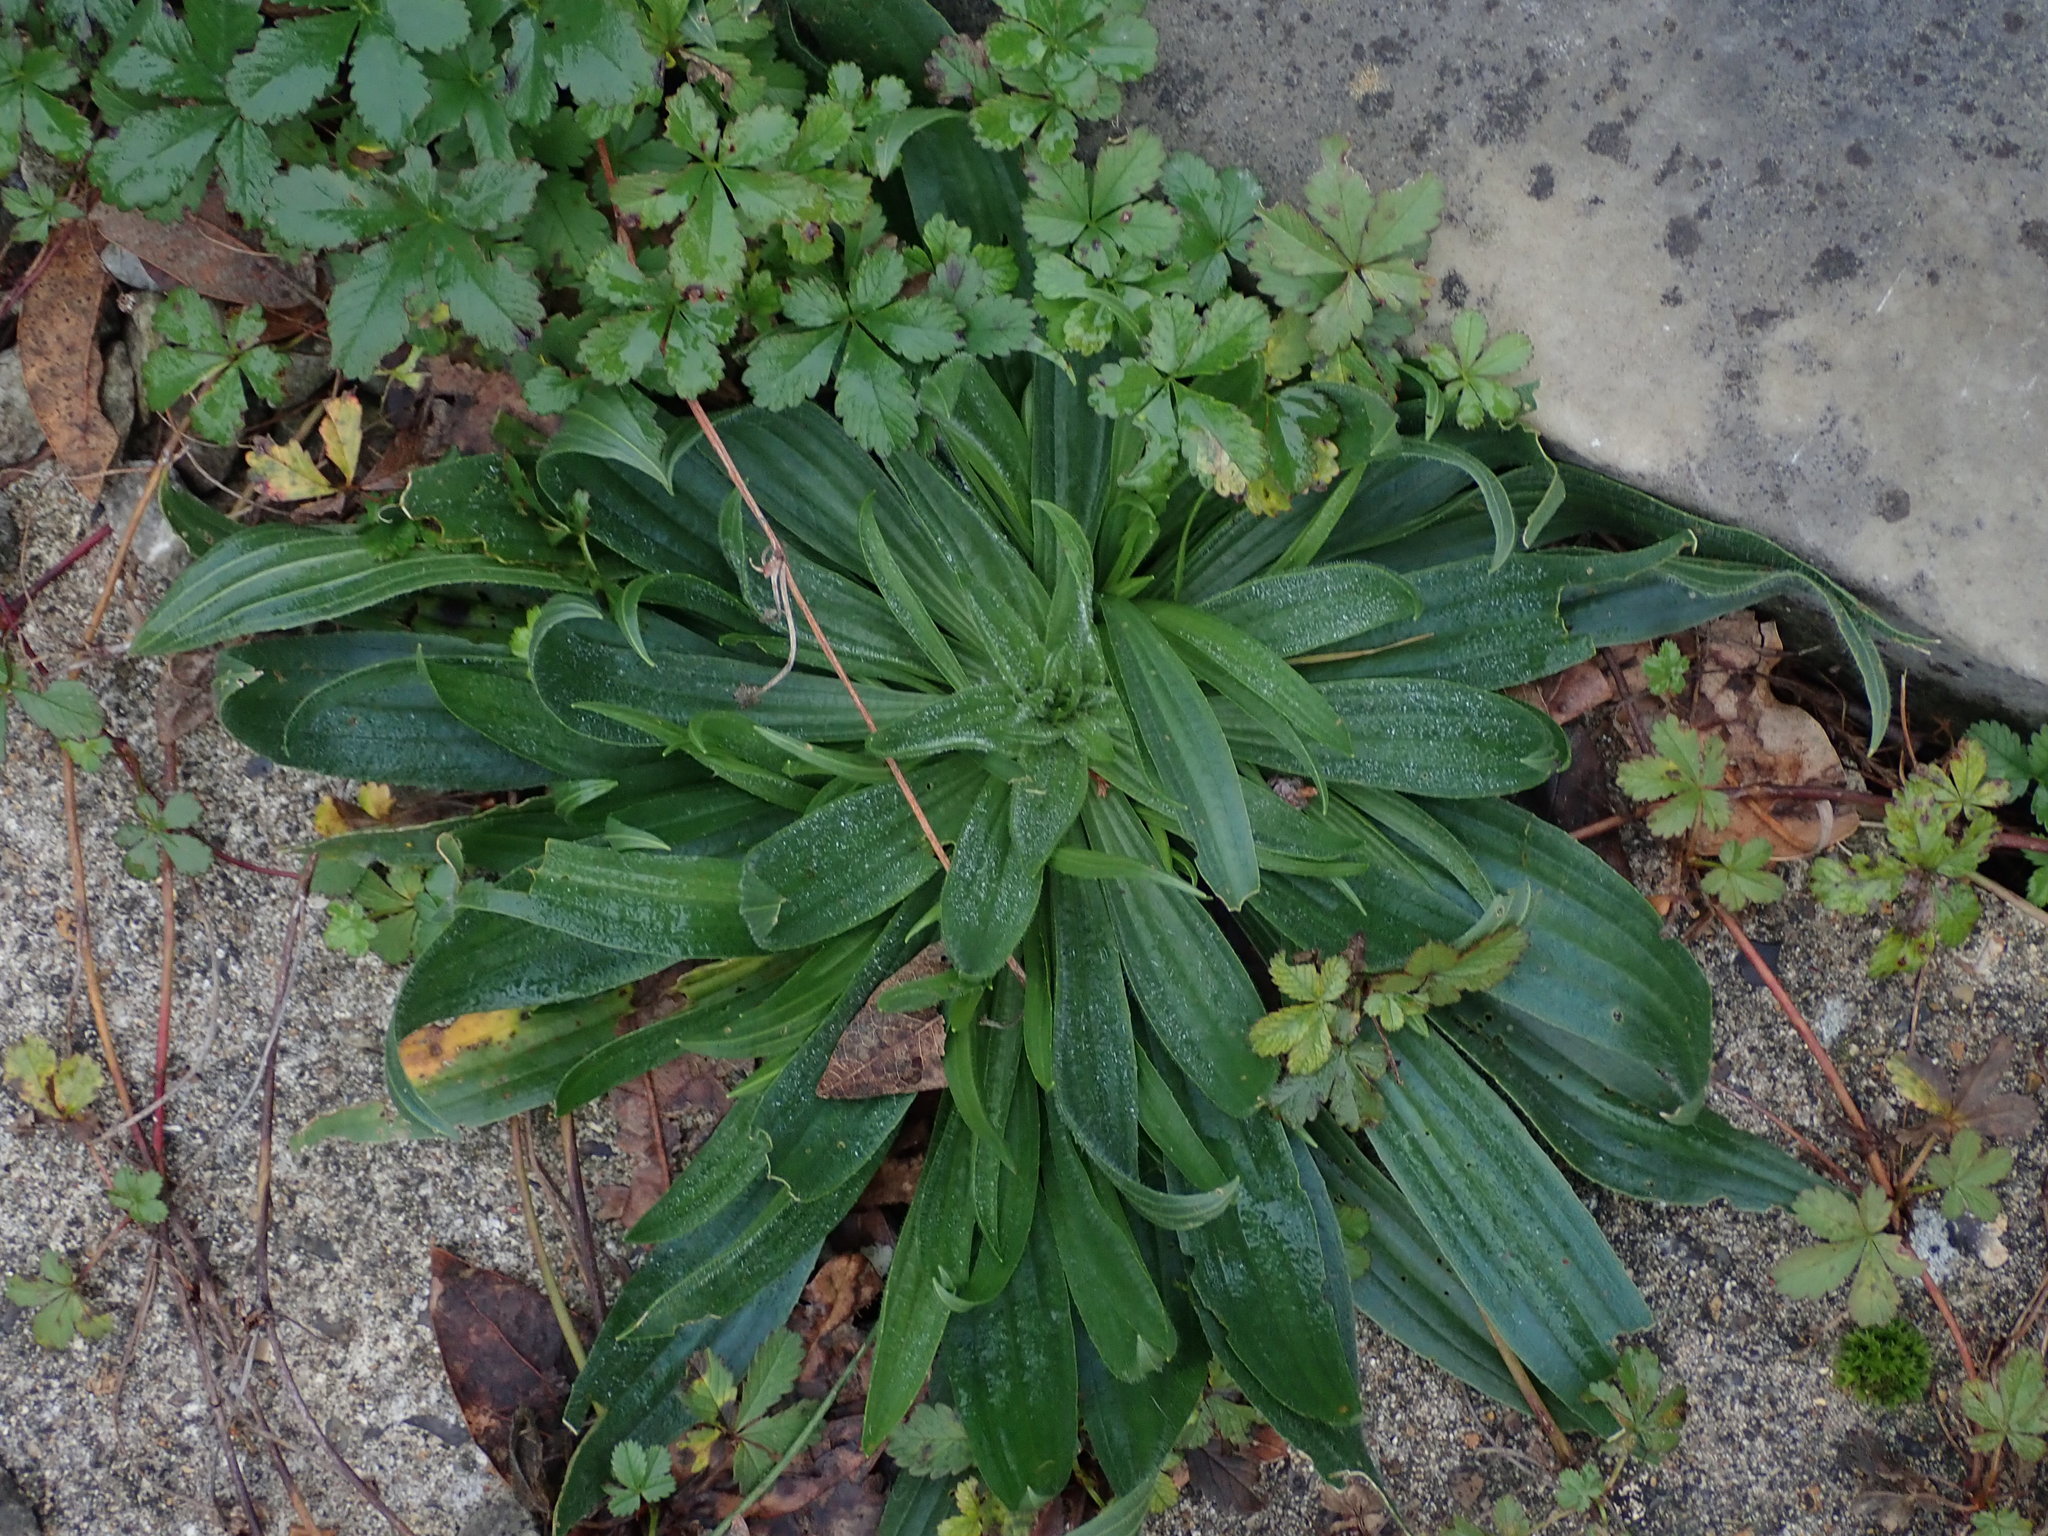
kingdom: Plantae
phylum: Tracheophyta
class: Magnoliopsida
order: Lamiales
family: Plantaginaceae
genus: Plantago
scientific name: Plantago lanceolata
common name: Ribwort plantain
